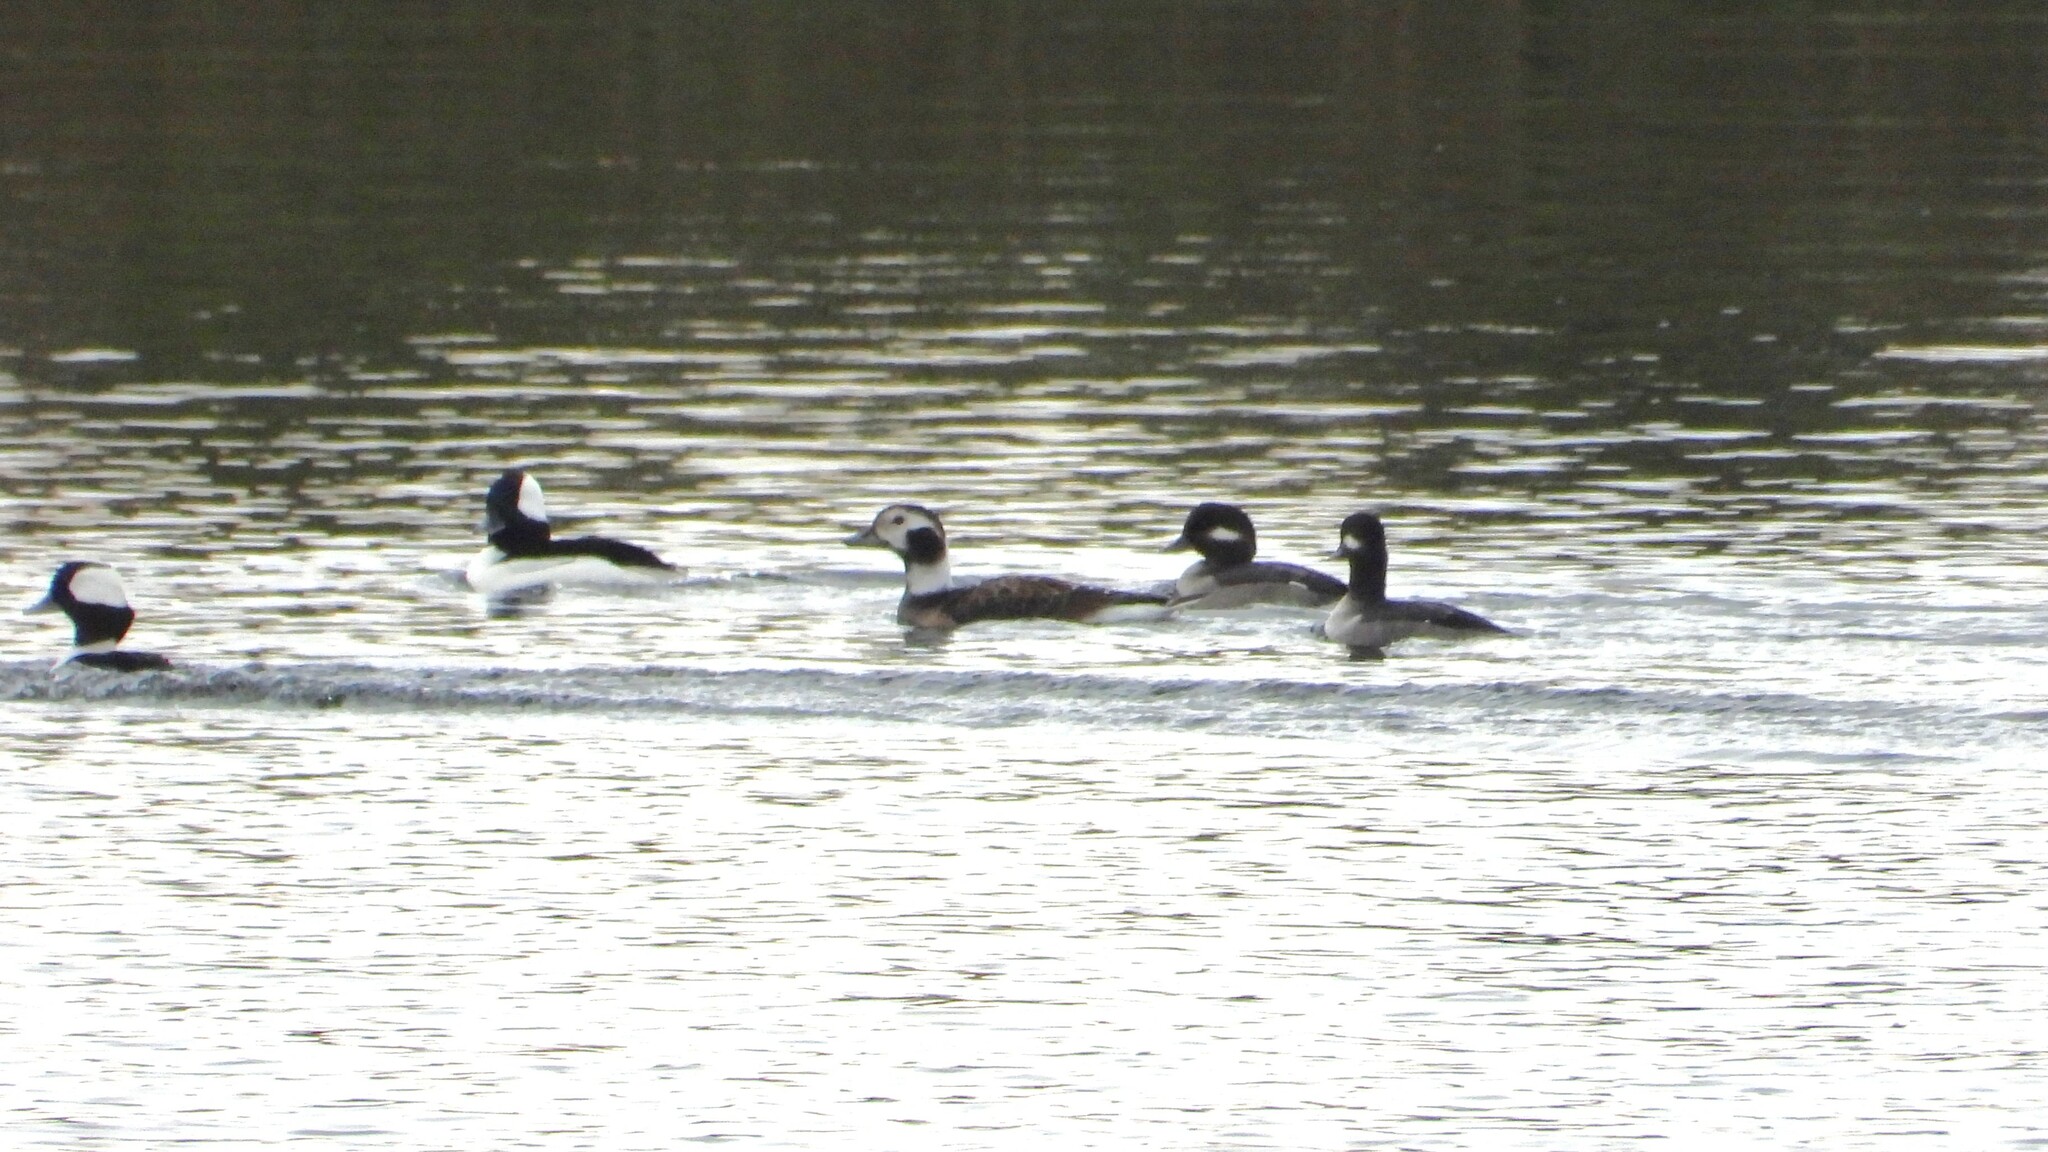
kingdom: Animalia
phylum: Chordata
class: Aves
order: Anseriformes
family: Anatidae
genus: Clangula
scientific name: Clangula hyemalis
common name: Long-tailed duck
